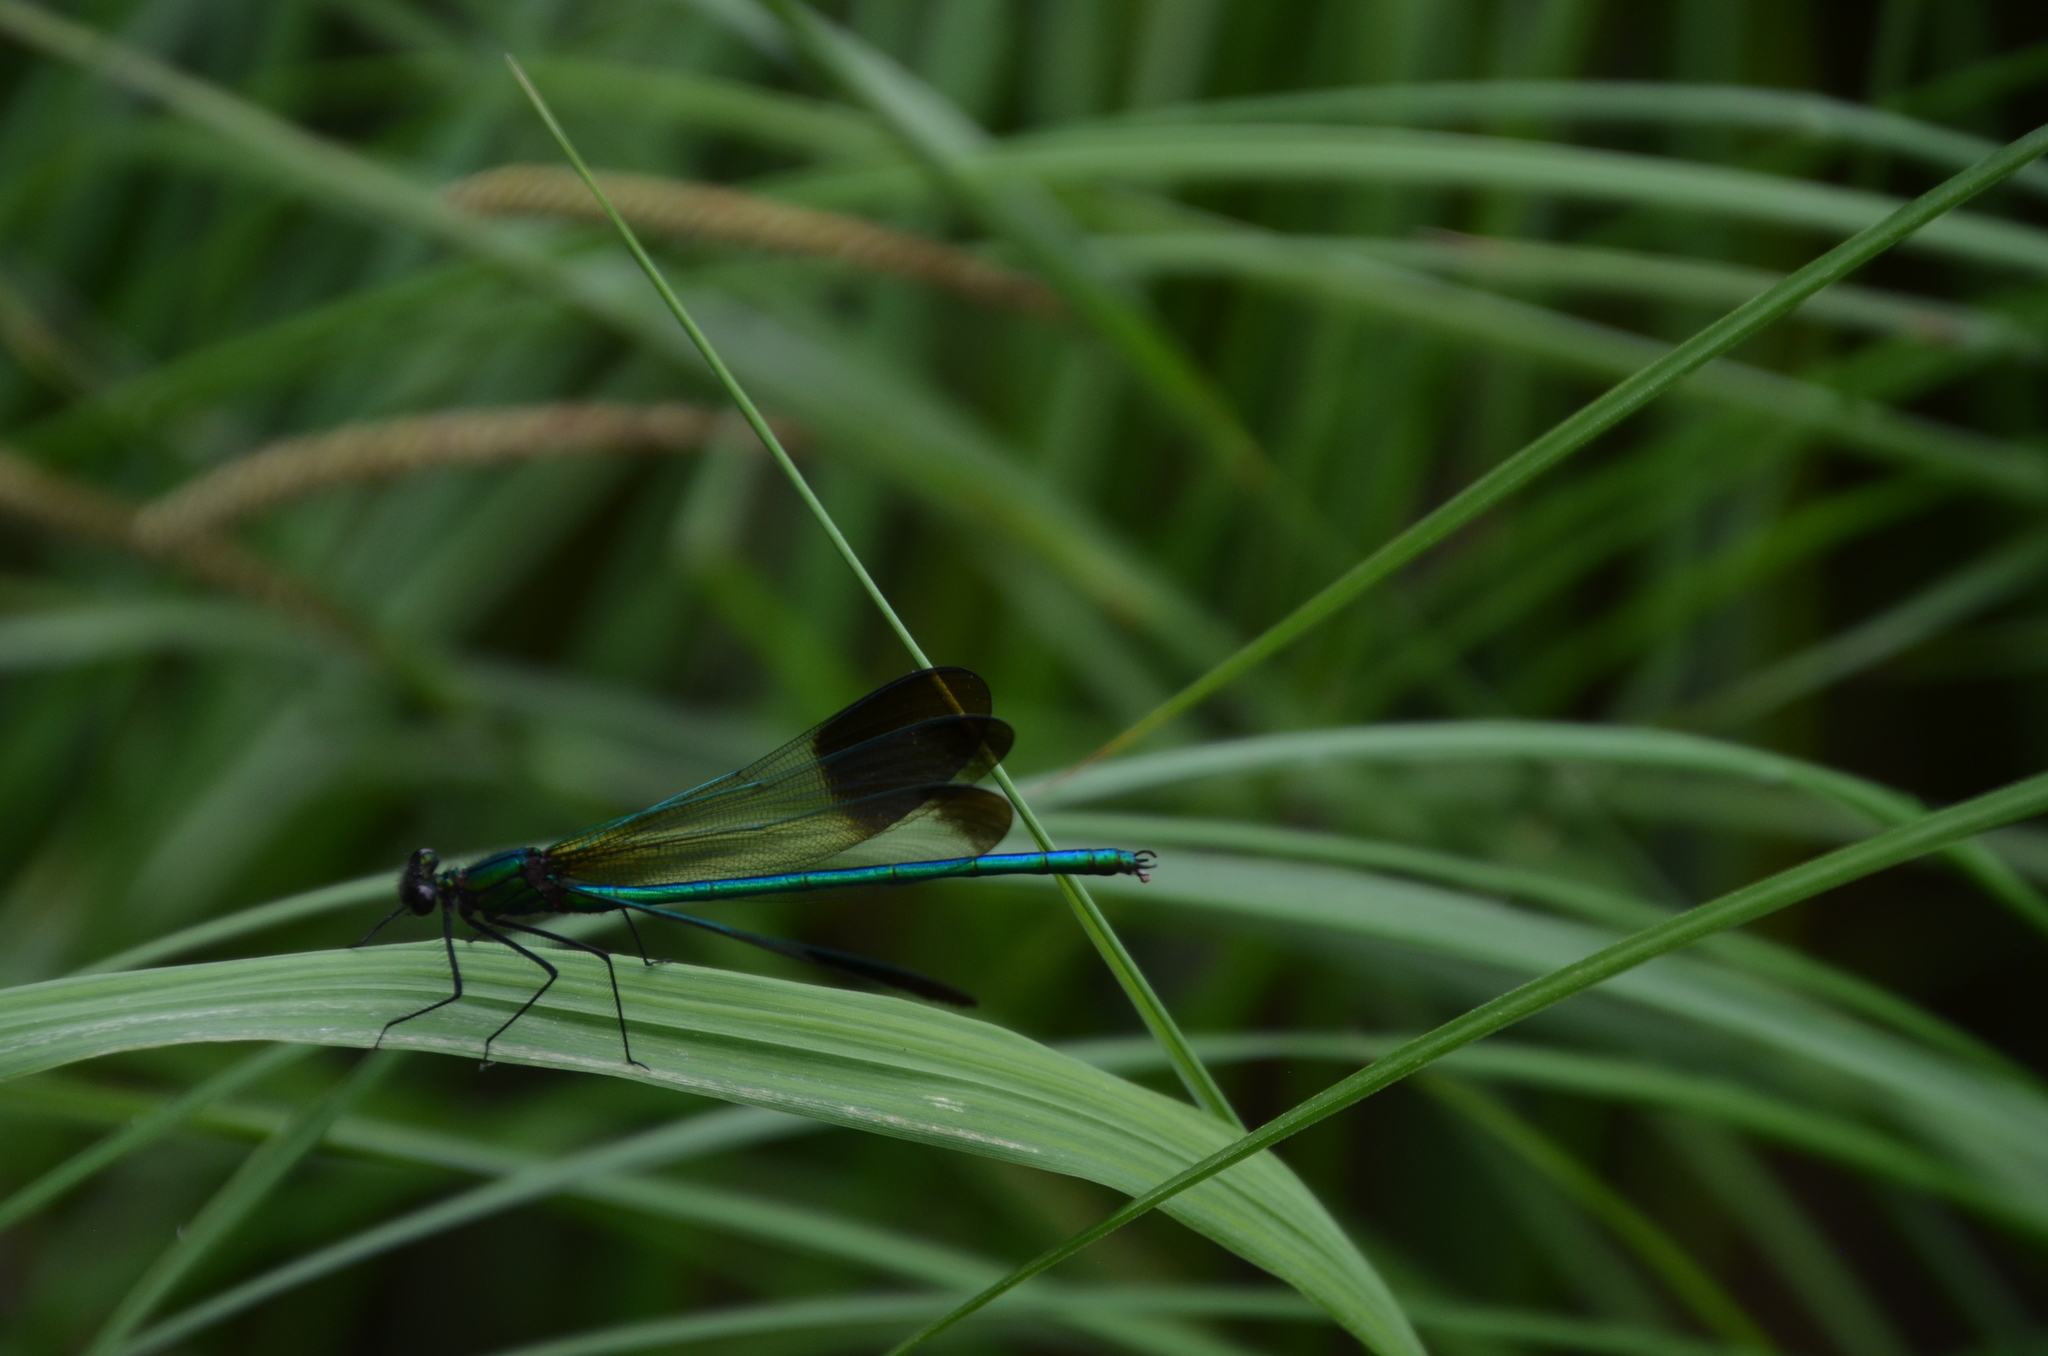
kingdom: Animalia
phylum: Arthropoda
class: Insecta
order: Odonata
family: Calopterygidae
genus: Calopteryx
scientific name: Calopteryx aequabilis
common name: River jewelwing
